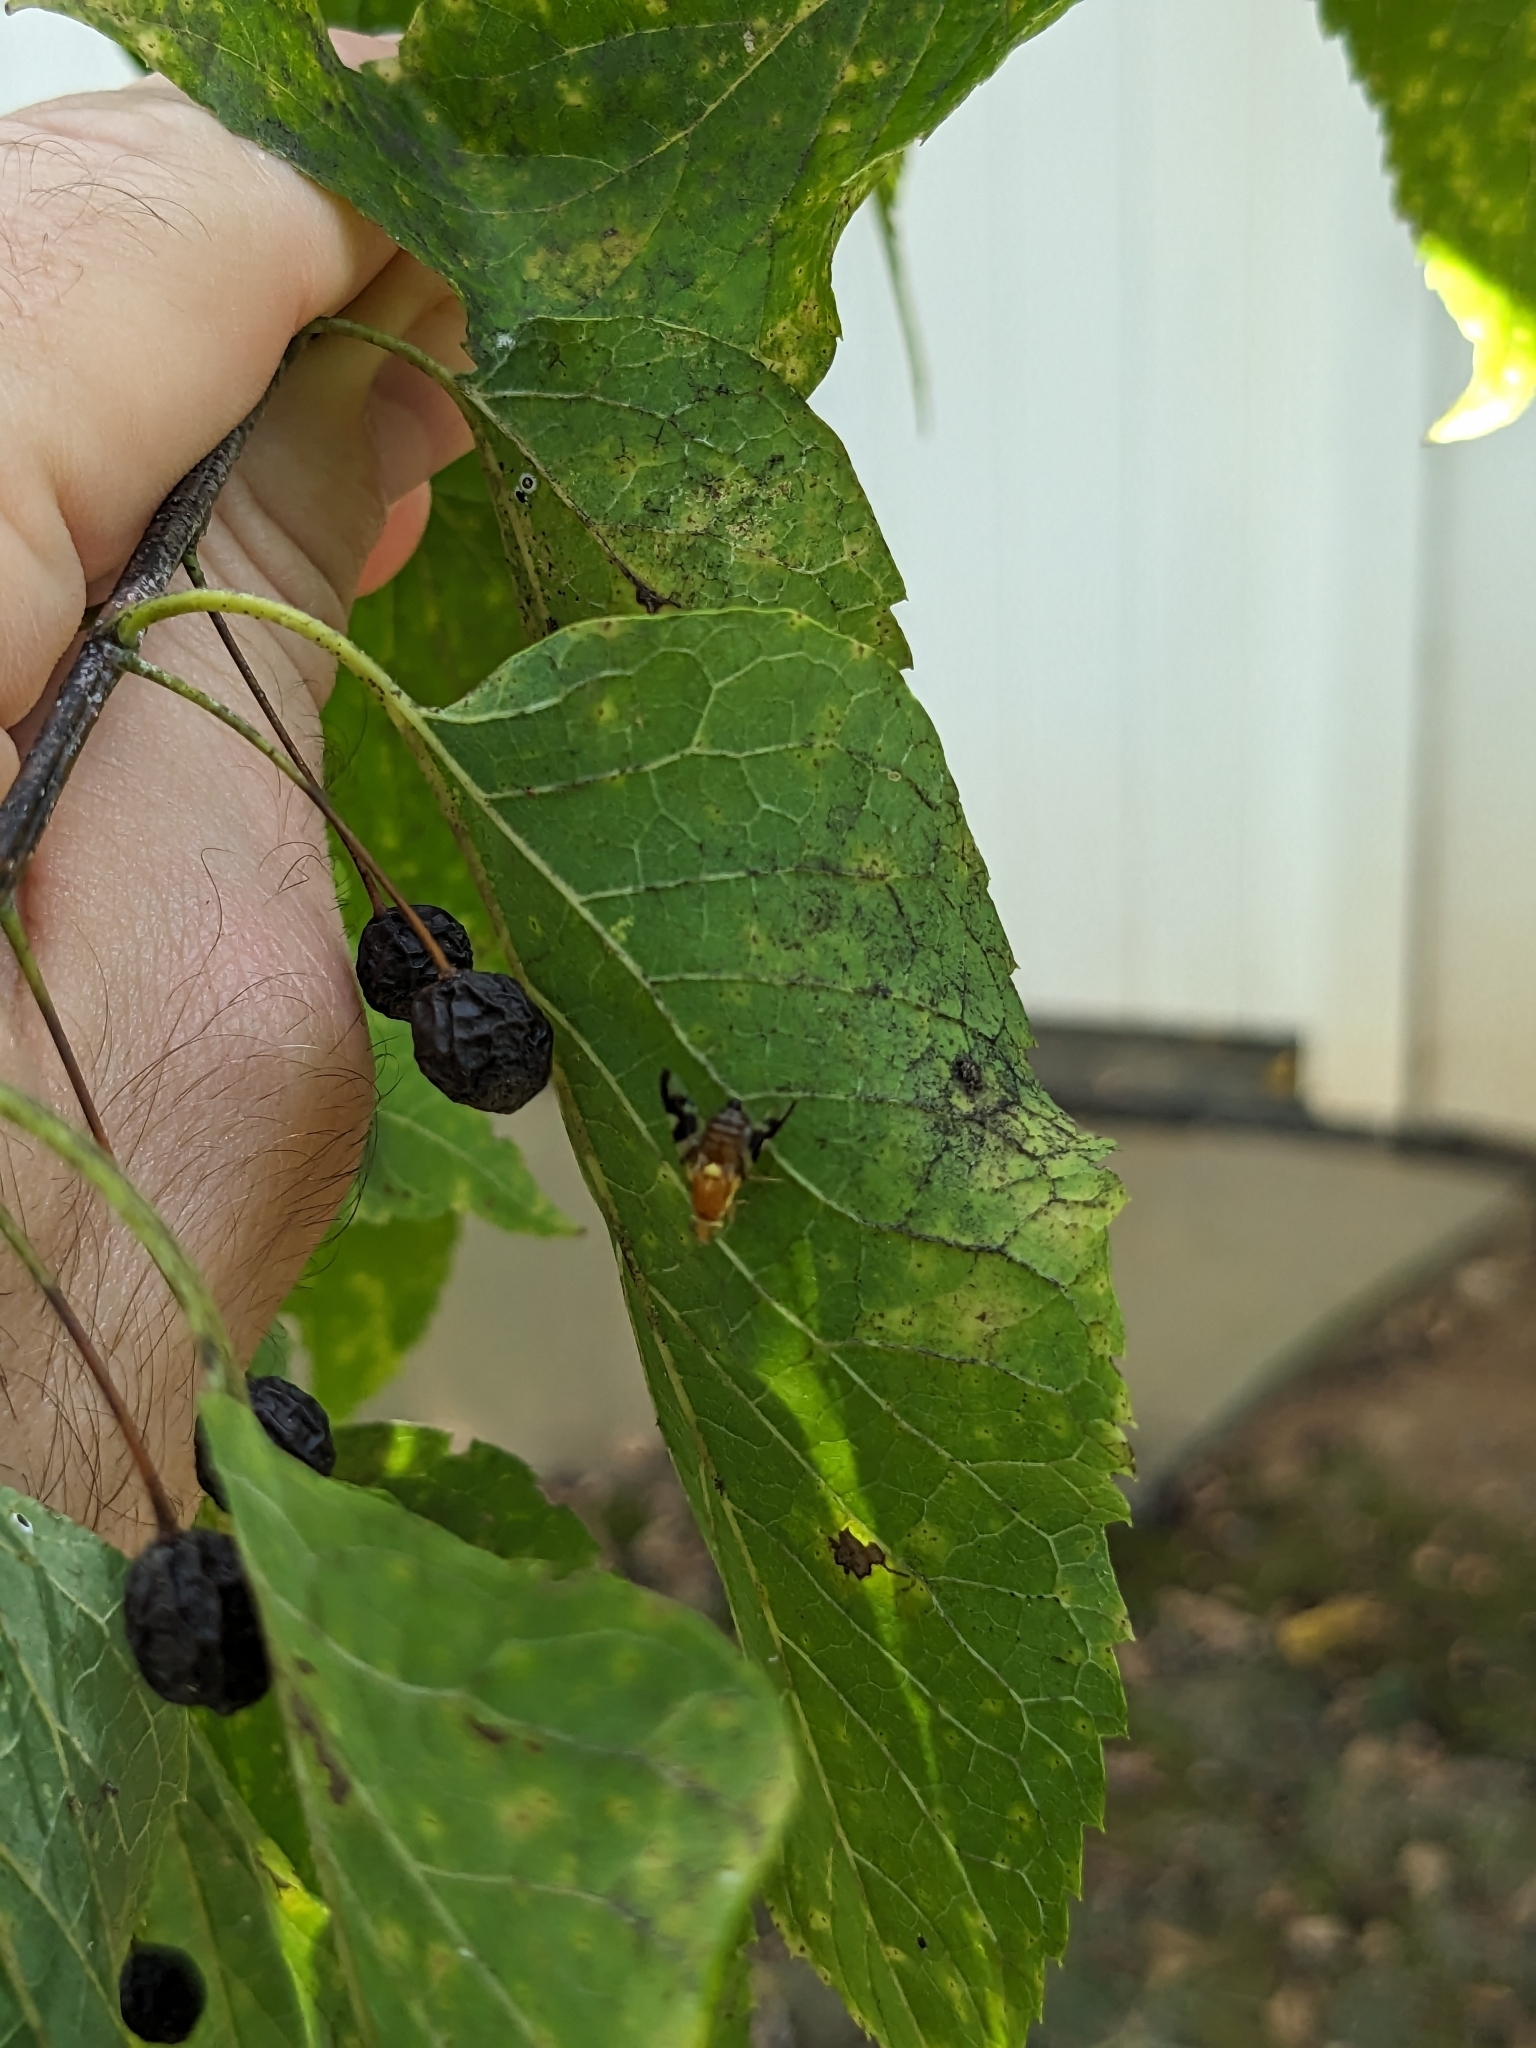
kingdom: Animalia
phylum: Arthropoda
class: Insecta
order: Diptera
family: Tephritidae
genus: Rhagoletis
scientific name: Rhagoletis suavis
